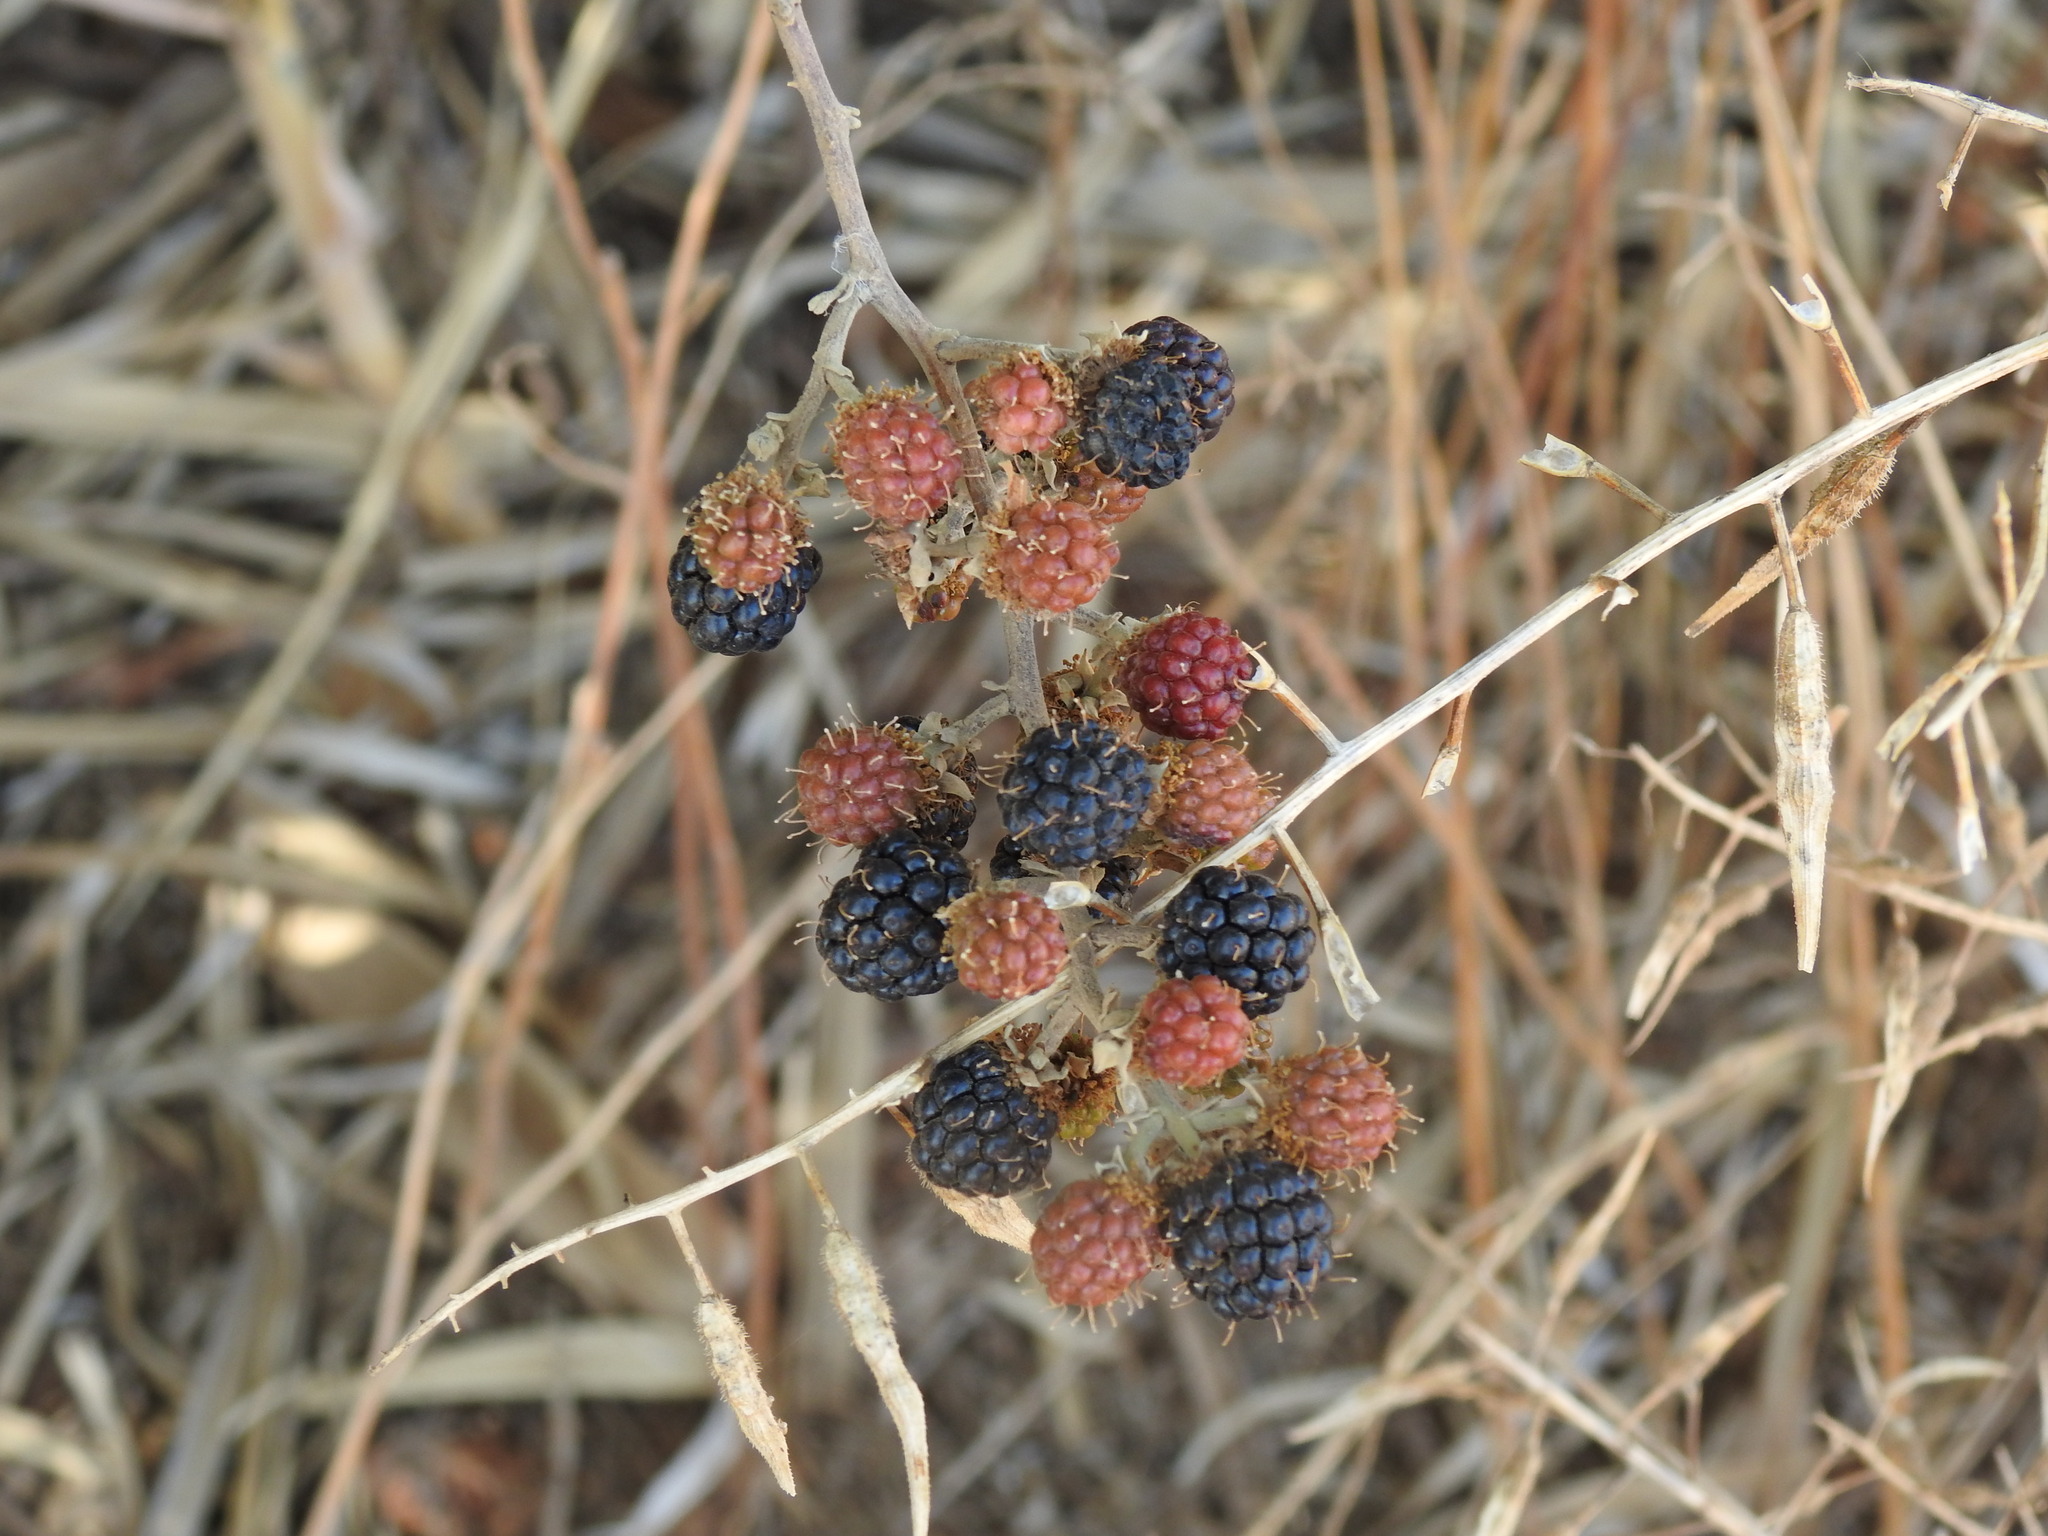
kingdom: Plantae
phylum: Tracheophyta
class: Magnoliopsida
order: Rosales
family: Rosaceae
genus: Rubus
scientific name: Rubus ulmifolius
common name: Elmleaf blackberry
